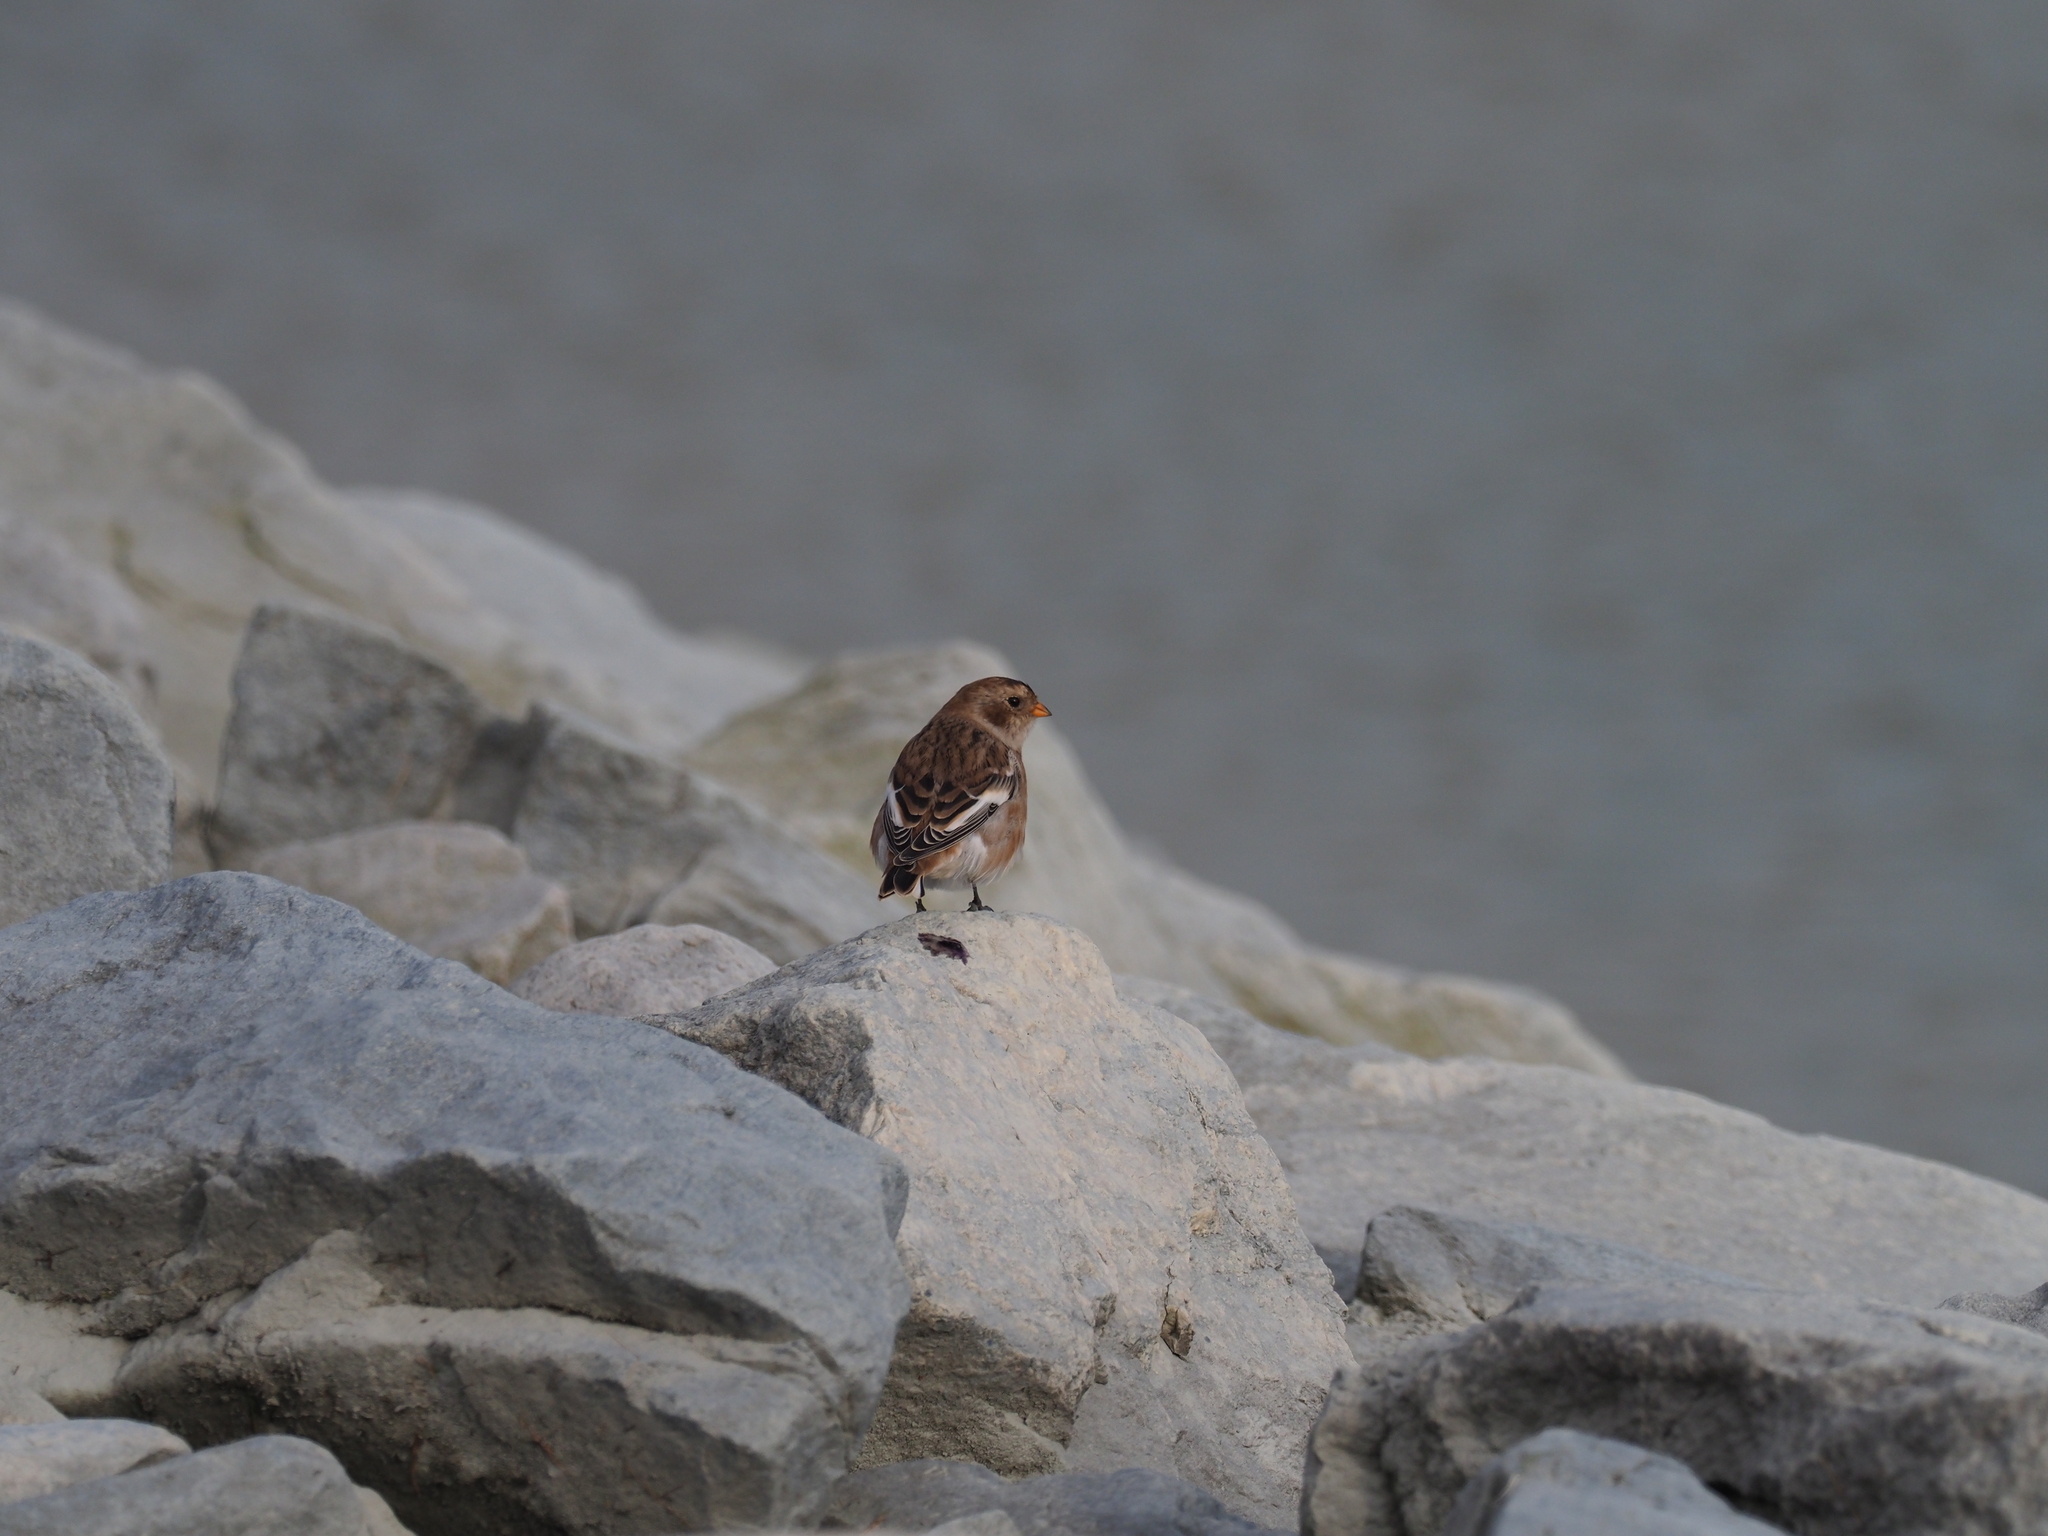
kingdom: Animalia
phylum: Chordata
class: Aves
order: Passeriformes
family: Calcariidae
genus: Plectrophenax
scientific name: Plectrophenax nivalis
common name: Snow bunting
